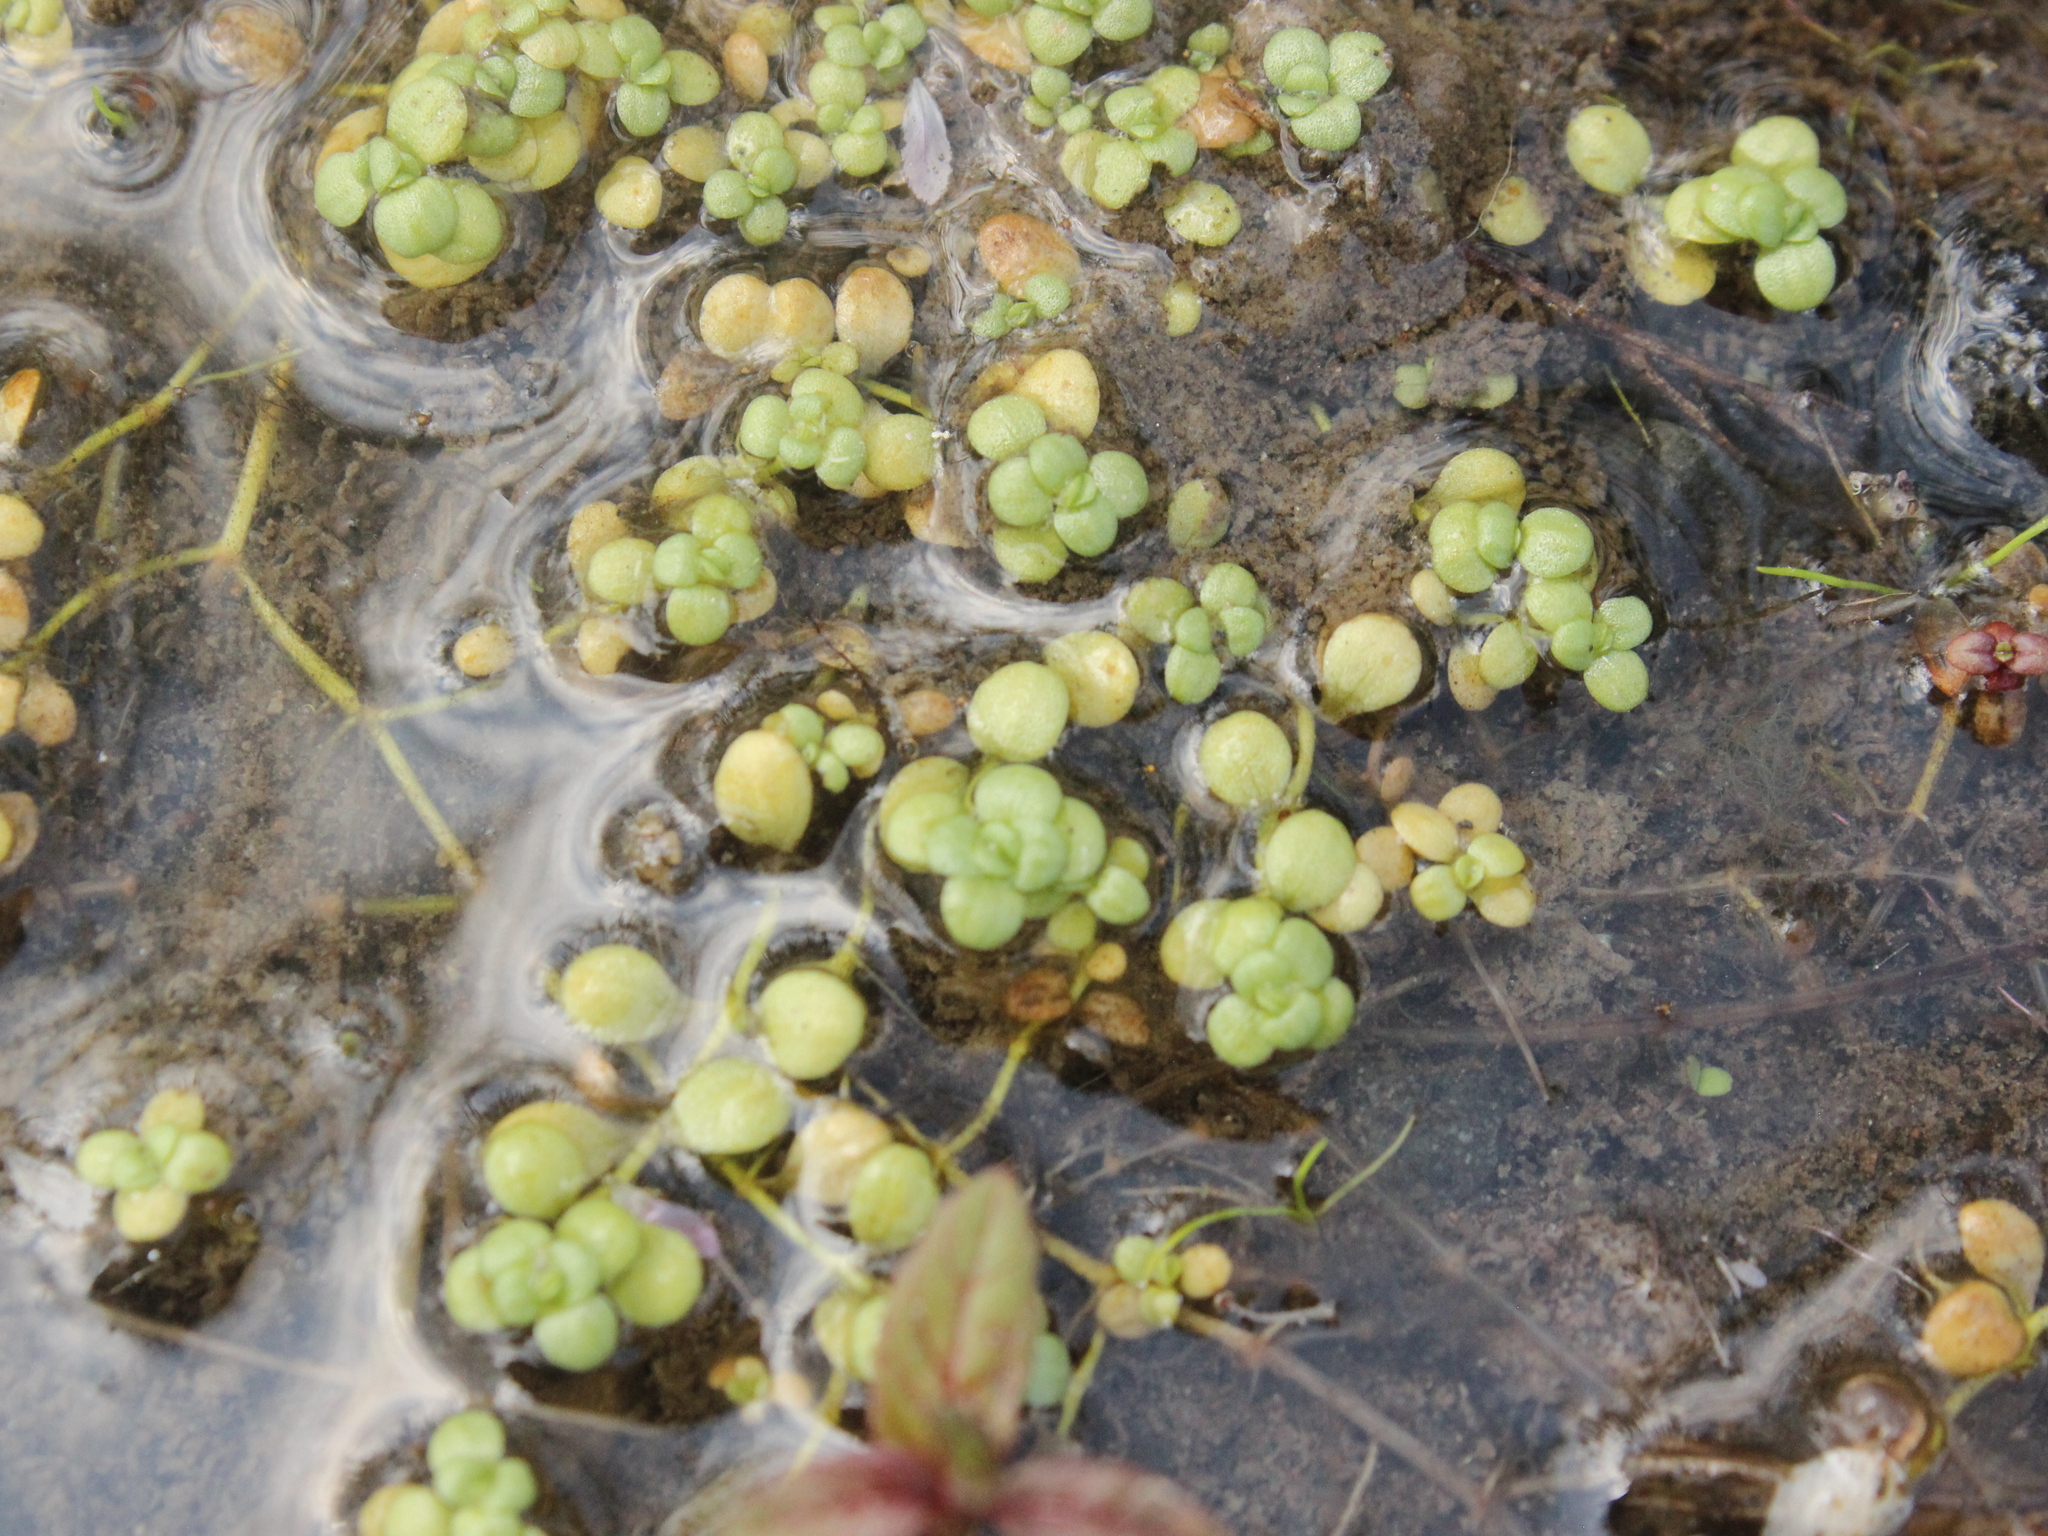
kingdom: Plantae
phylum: Tracheophyta
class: Magnoliopsida
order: Lamiales
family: Plantaginaceae
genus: Callitriche
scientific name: Callitriche stagnalis
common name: Common water-starwort
